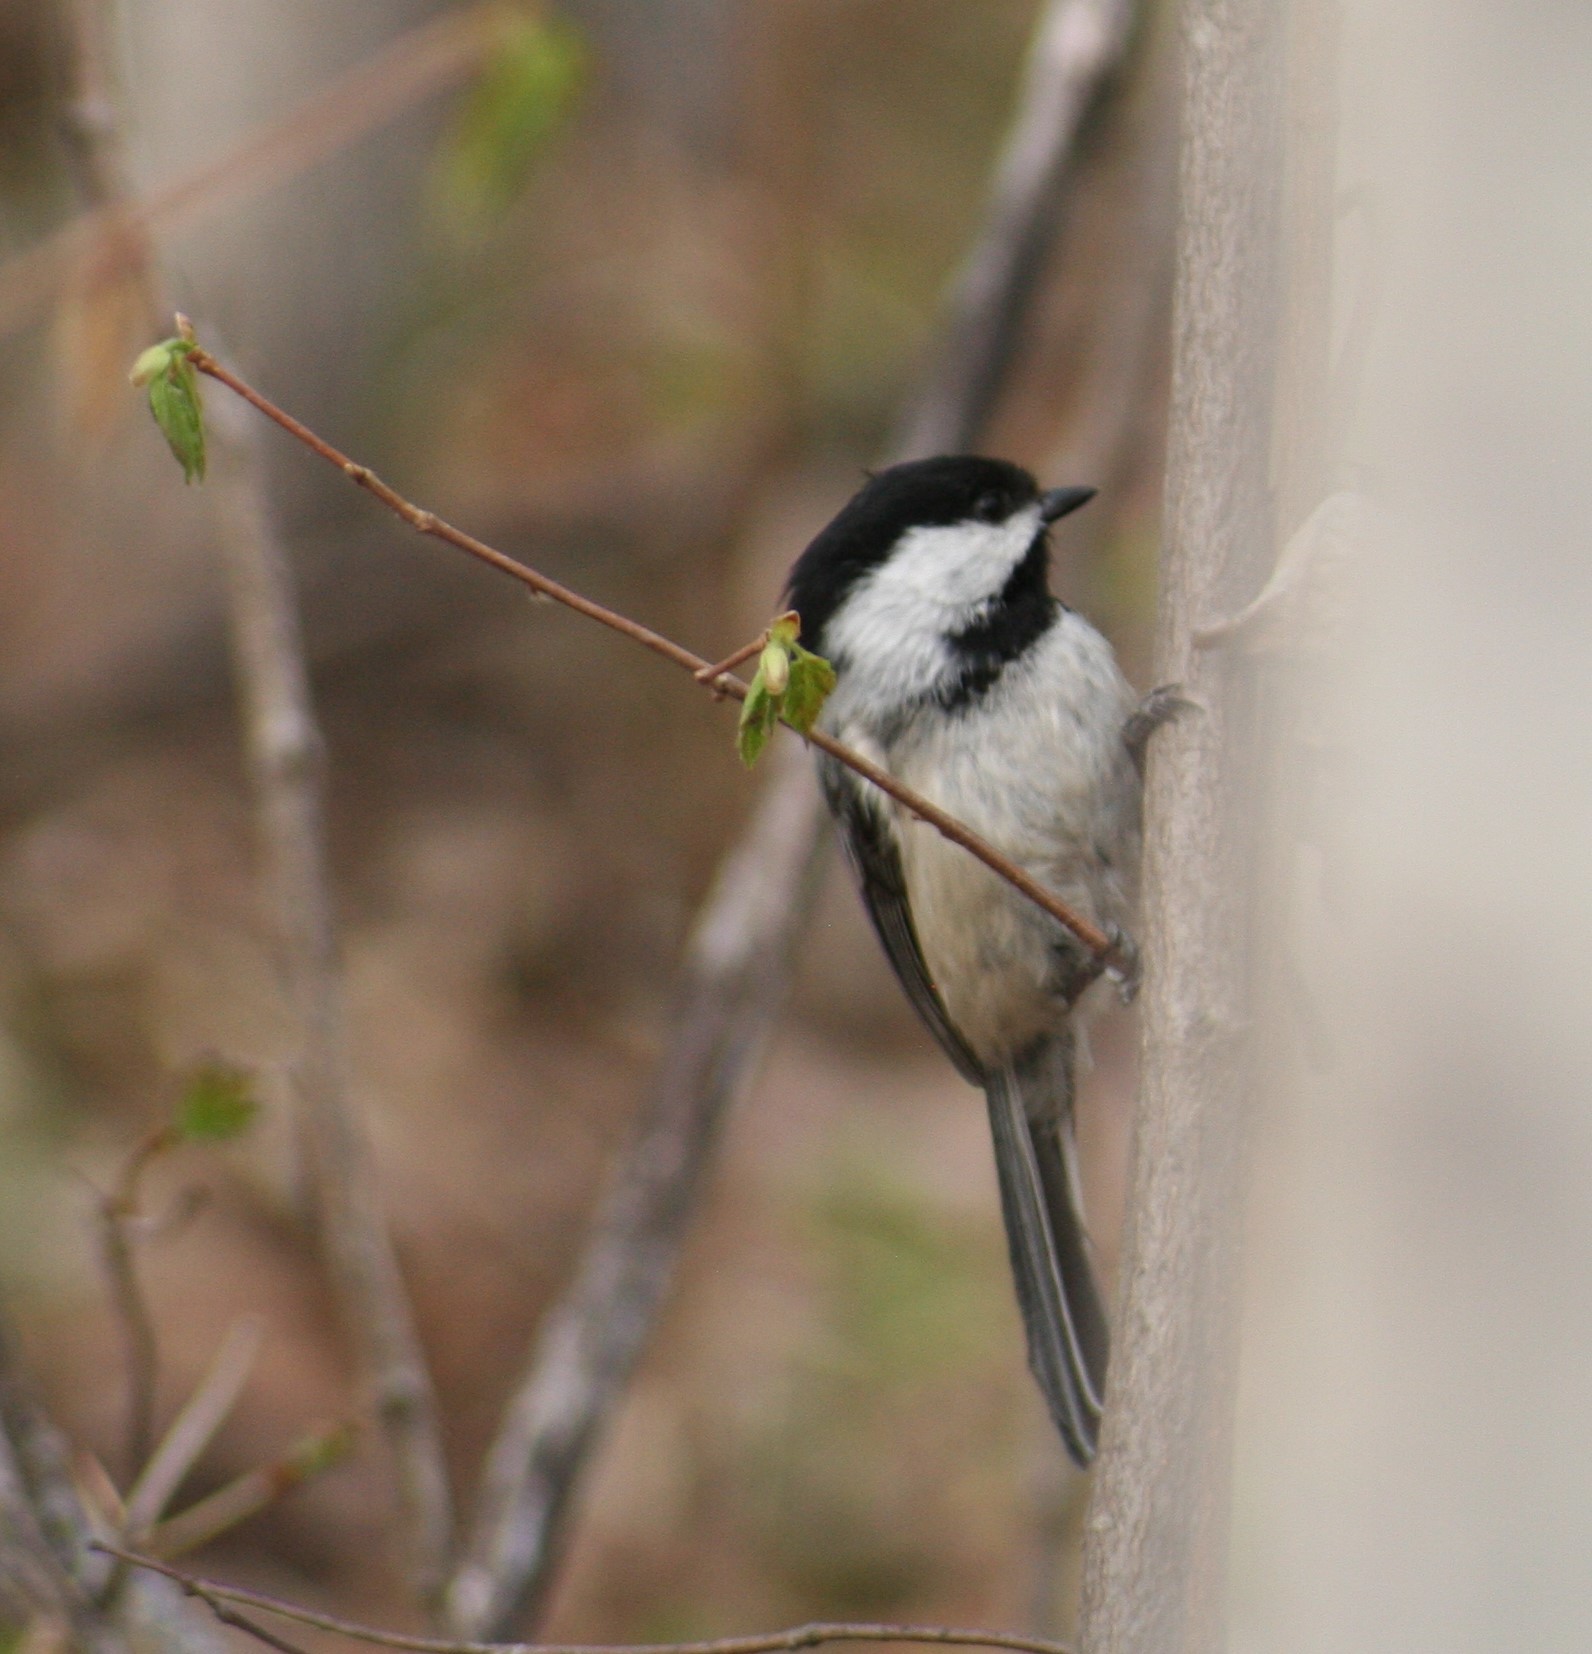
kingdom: Animalia
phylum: Chordata
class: Aves
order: Passeriformes
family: Paridae
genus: Poecile
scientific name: Poecile atricapillus
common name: Black-capped chickadee
